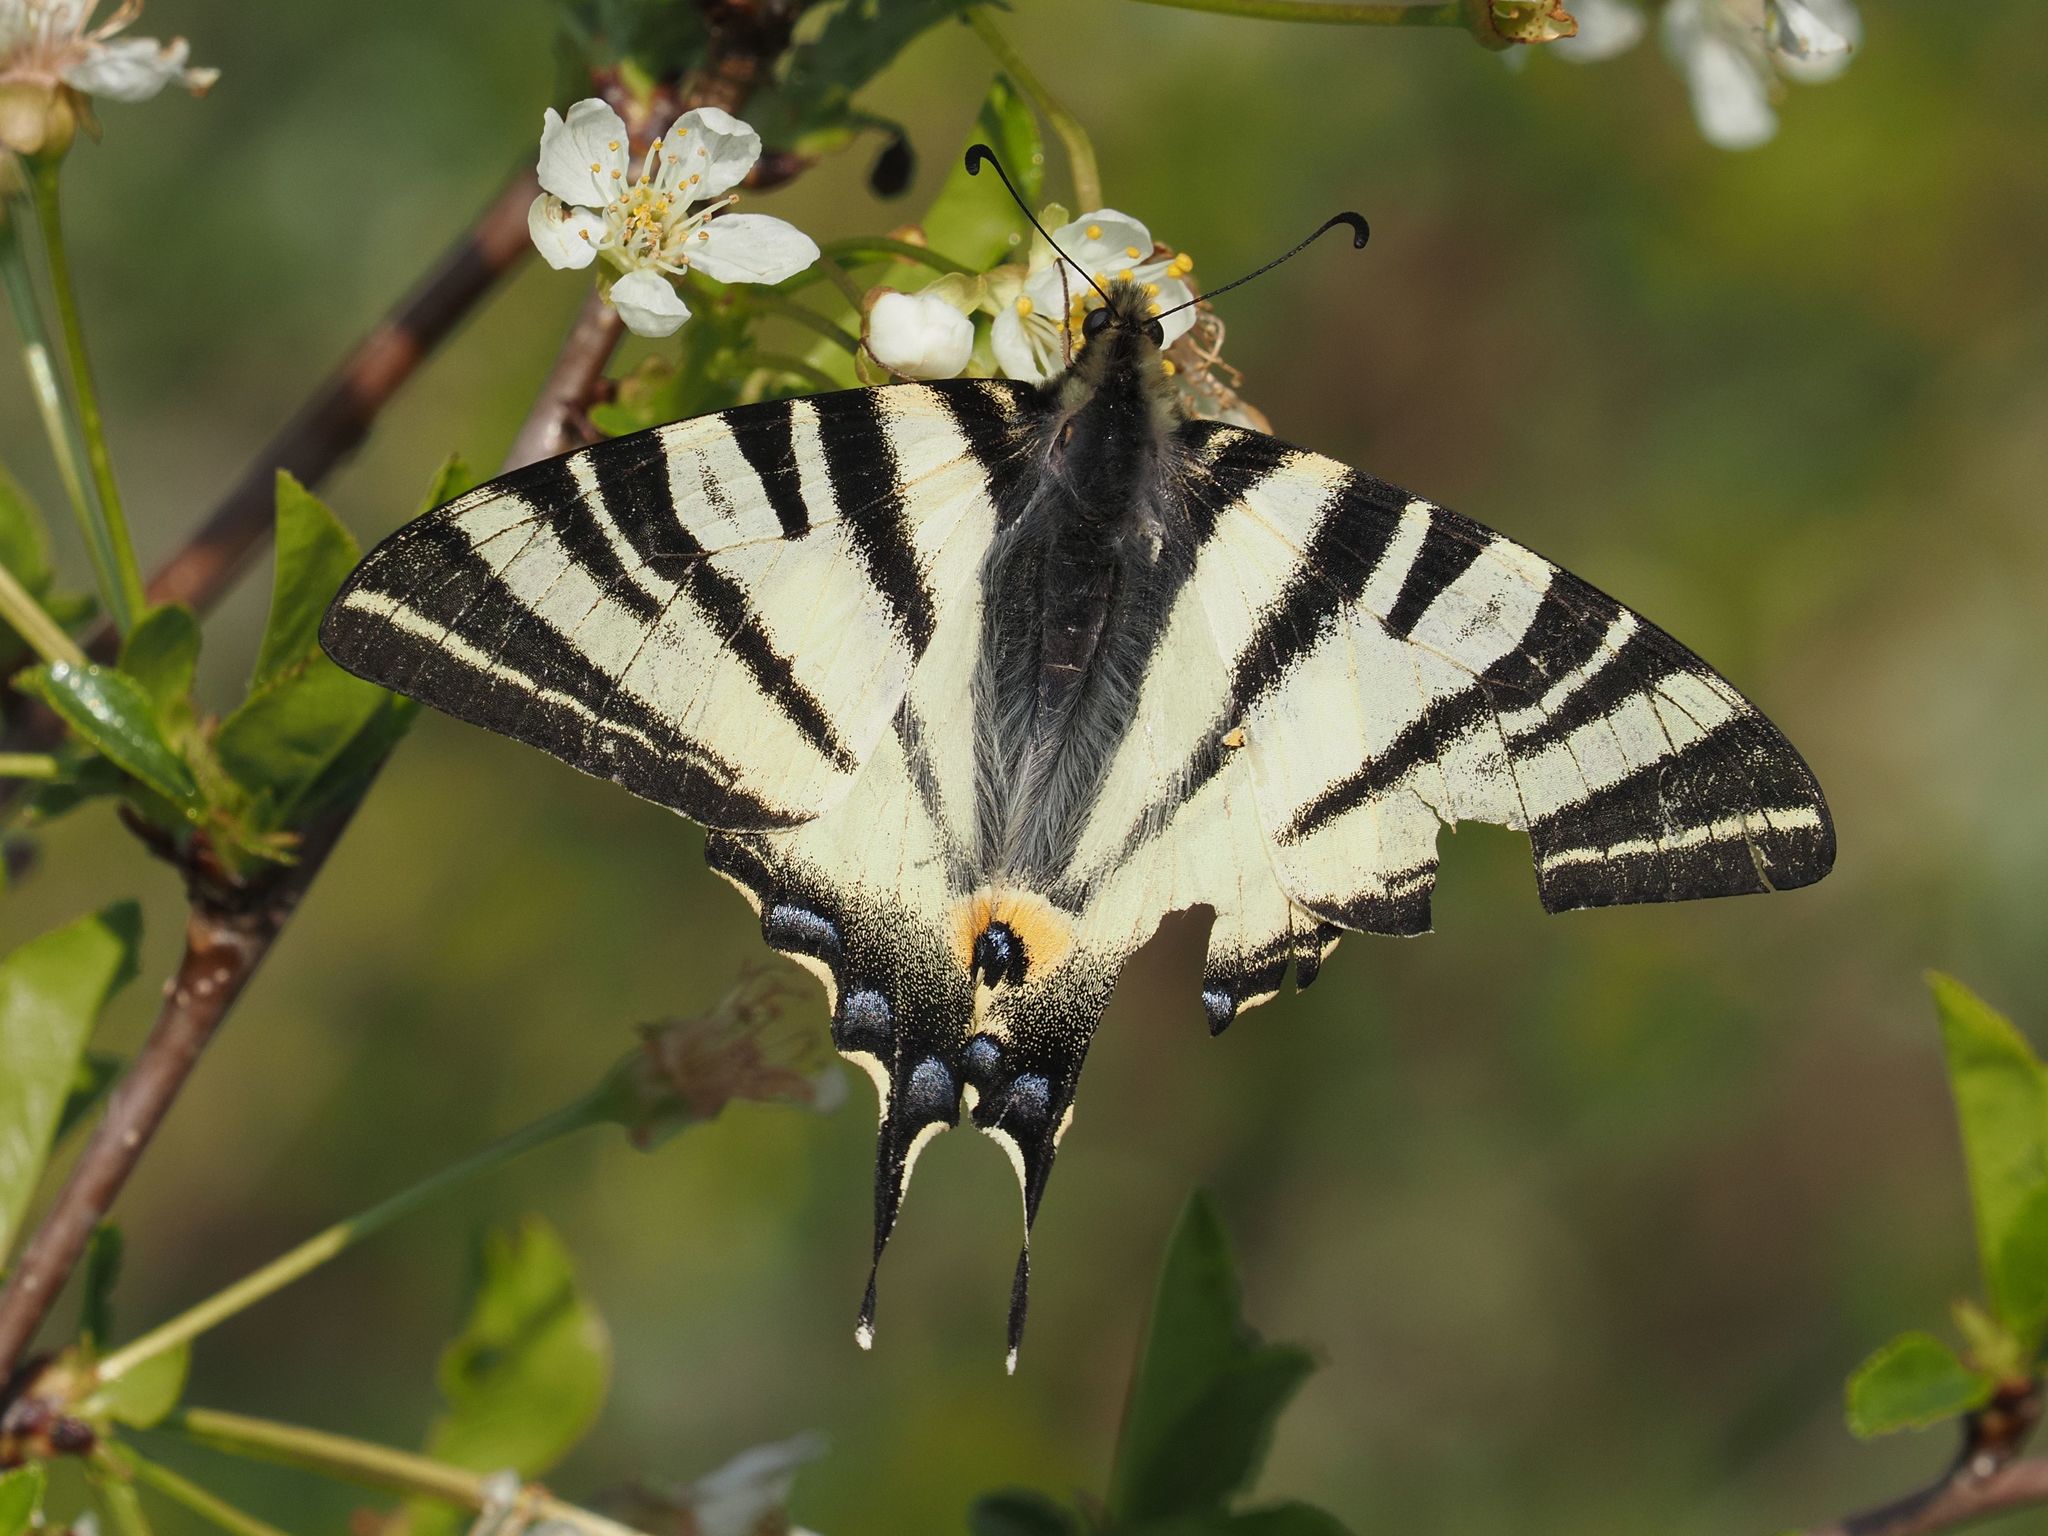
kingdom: Animalia
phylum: Arthropoda
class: Insecta
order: Lepidoptera
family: Papilionidae
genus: Iphiclides
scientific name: Iphiclides podalirius
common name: Scarce swallowtail
